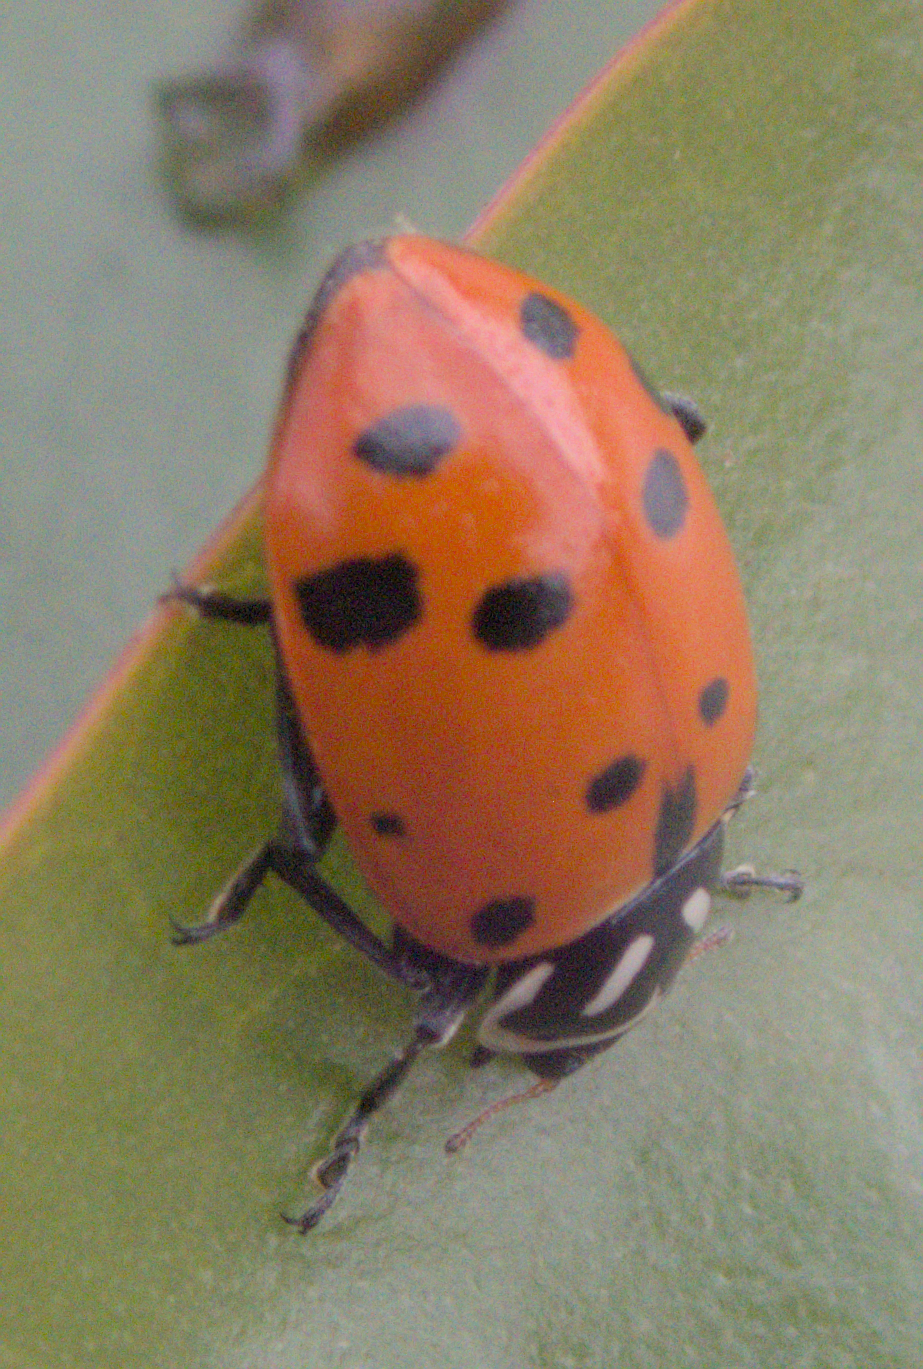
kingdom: Animalia
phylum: Arthropoda
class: Insecta
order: Coleoptera
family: Coccinellidae
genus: Hippodamia
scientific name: Hippodamia convergens
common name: Convergent lady beetle
